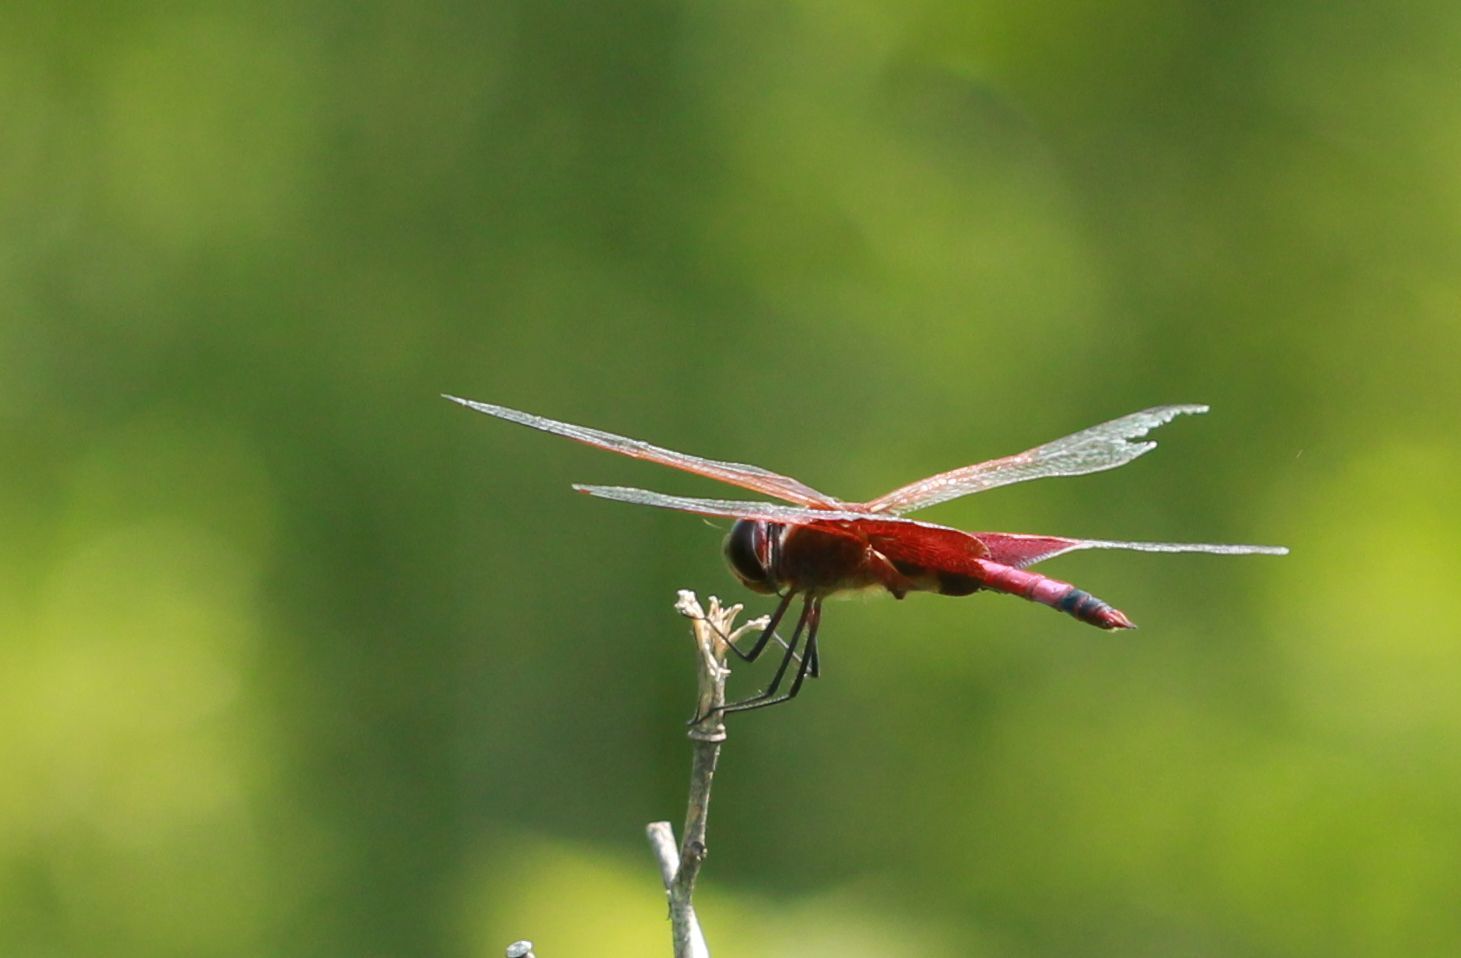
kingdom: Animalia
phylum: Arthropoda
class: Insecta
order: Odonata
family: Libellulidae
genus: Tramea
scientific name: Tramea carolina
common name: Carolina saddlebags
